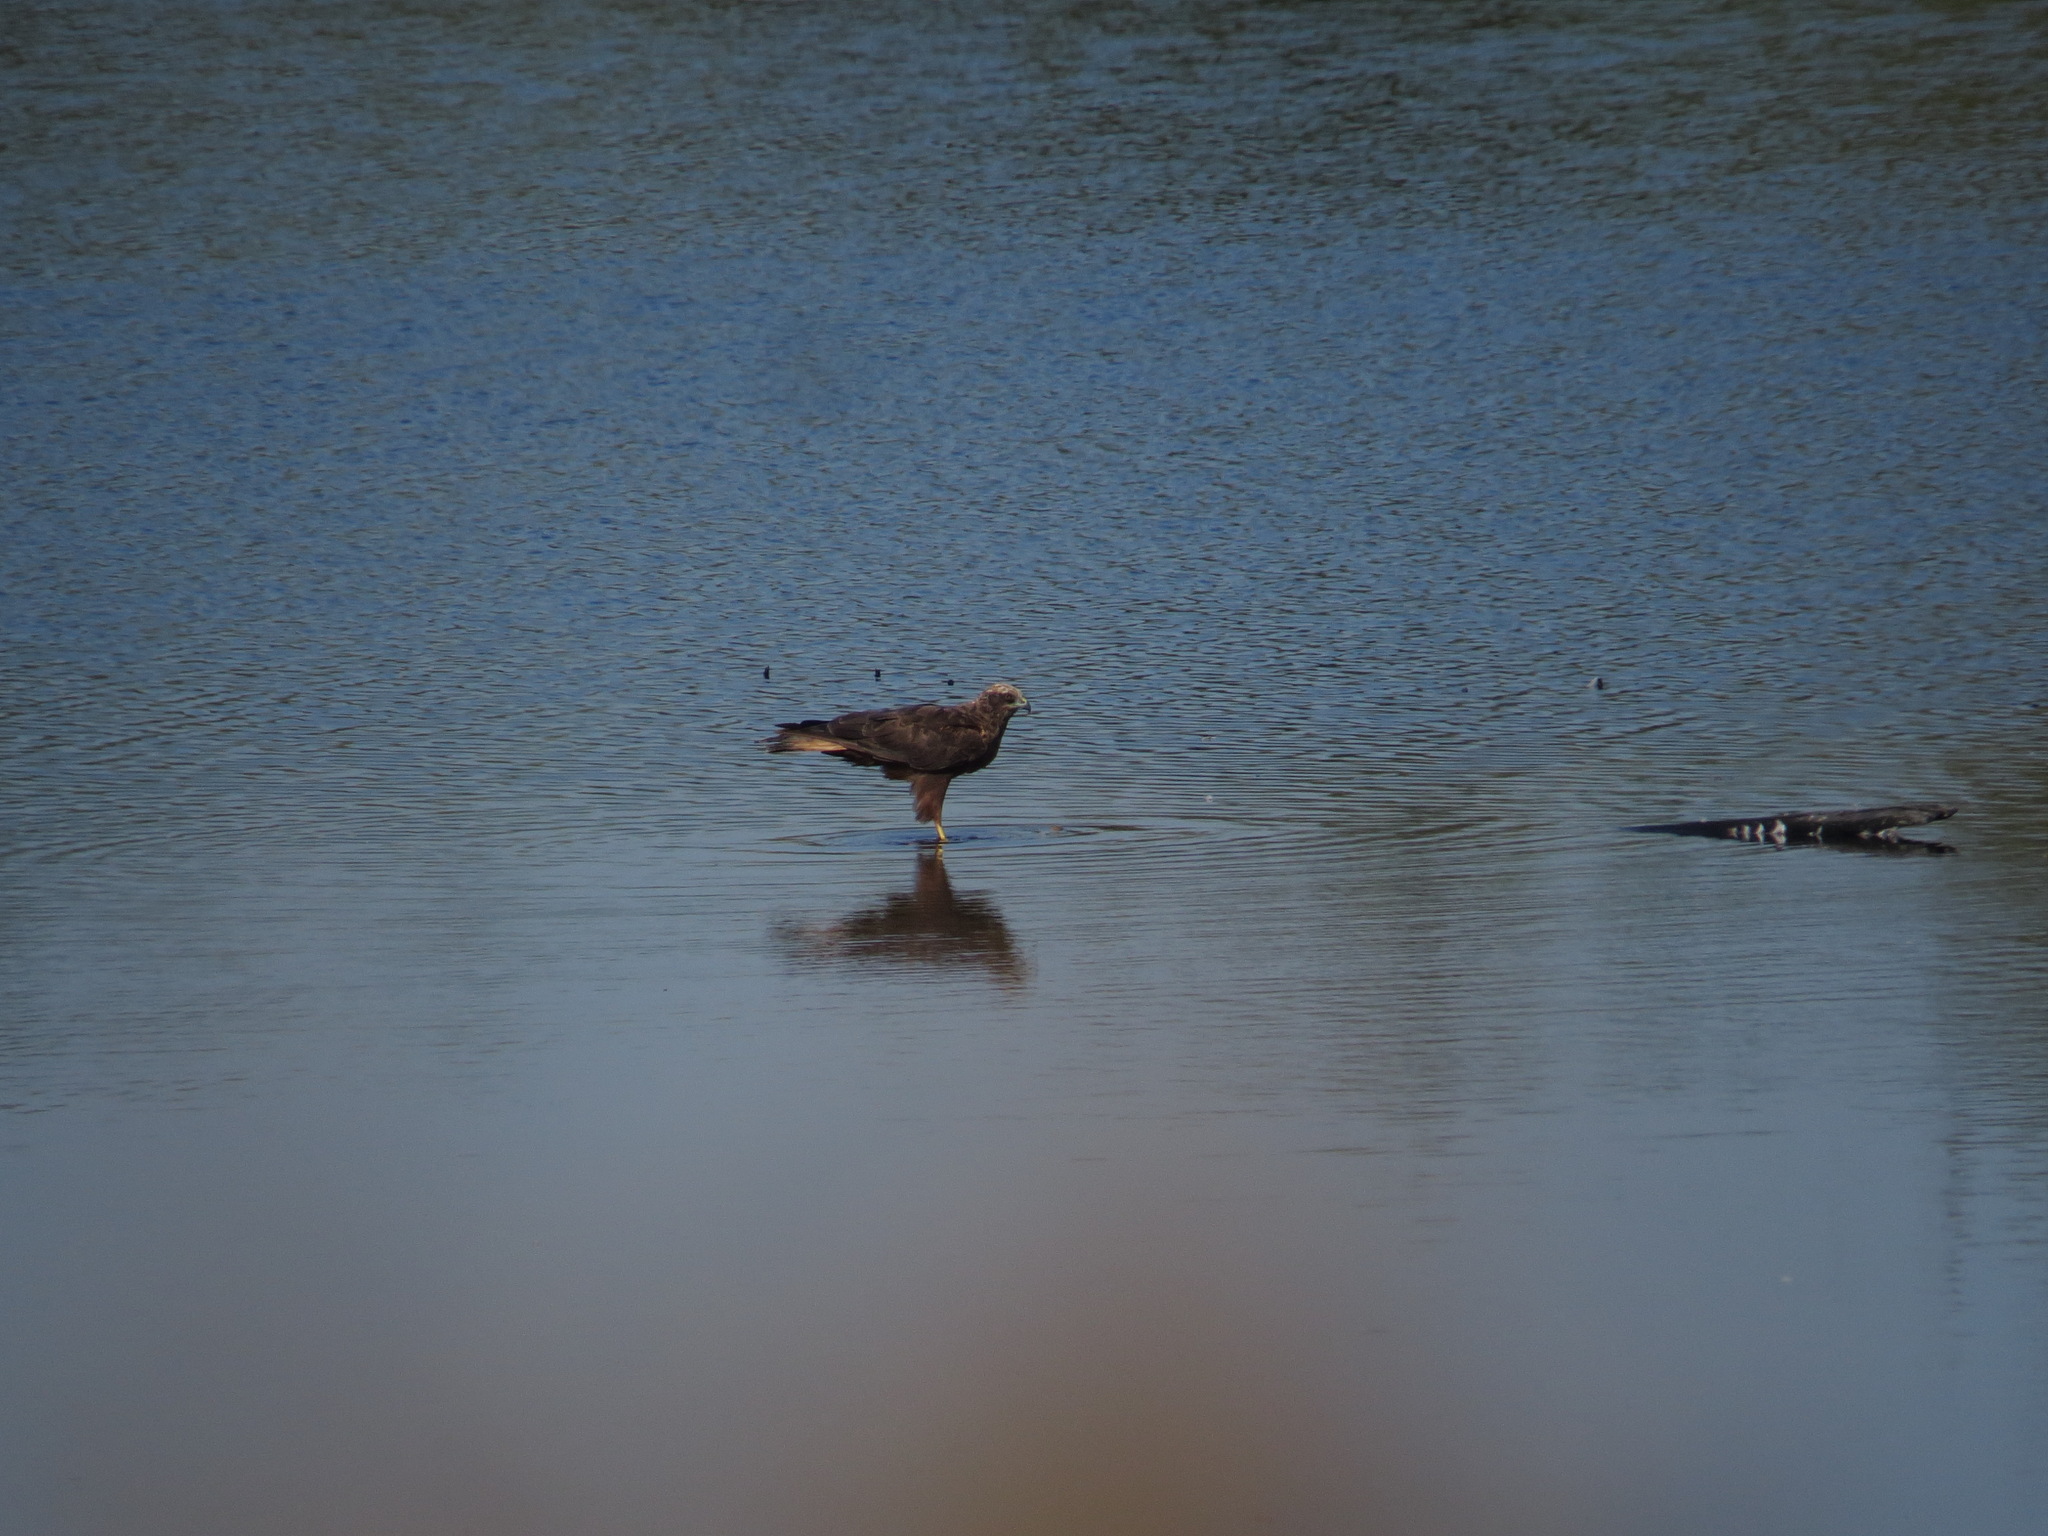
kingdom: Animalia
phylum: Chordata
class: Aves
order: Accipitriformes
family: Accipitridae
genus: Circus
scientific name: Circus aeruginosus
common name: Western marsh harrier
